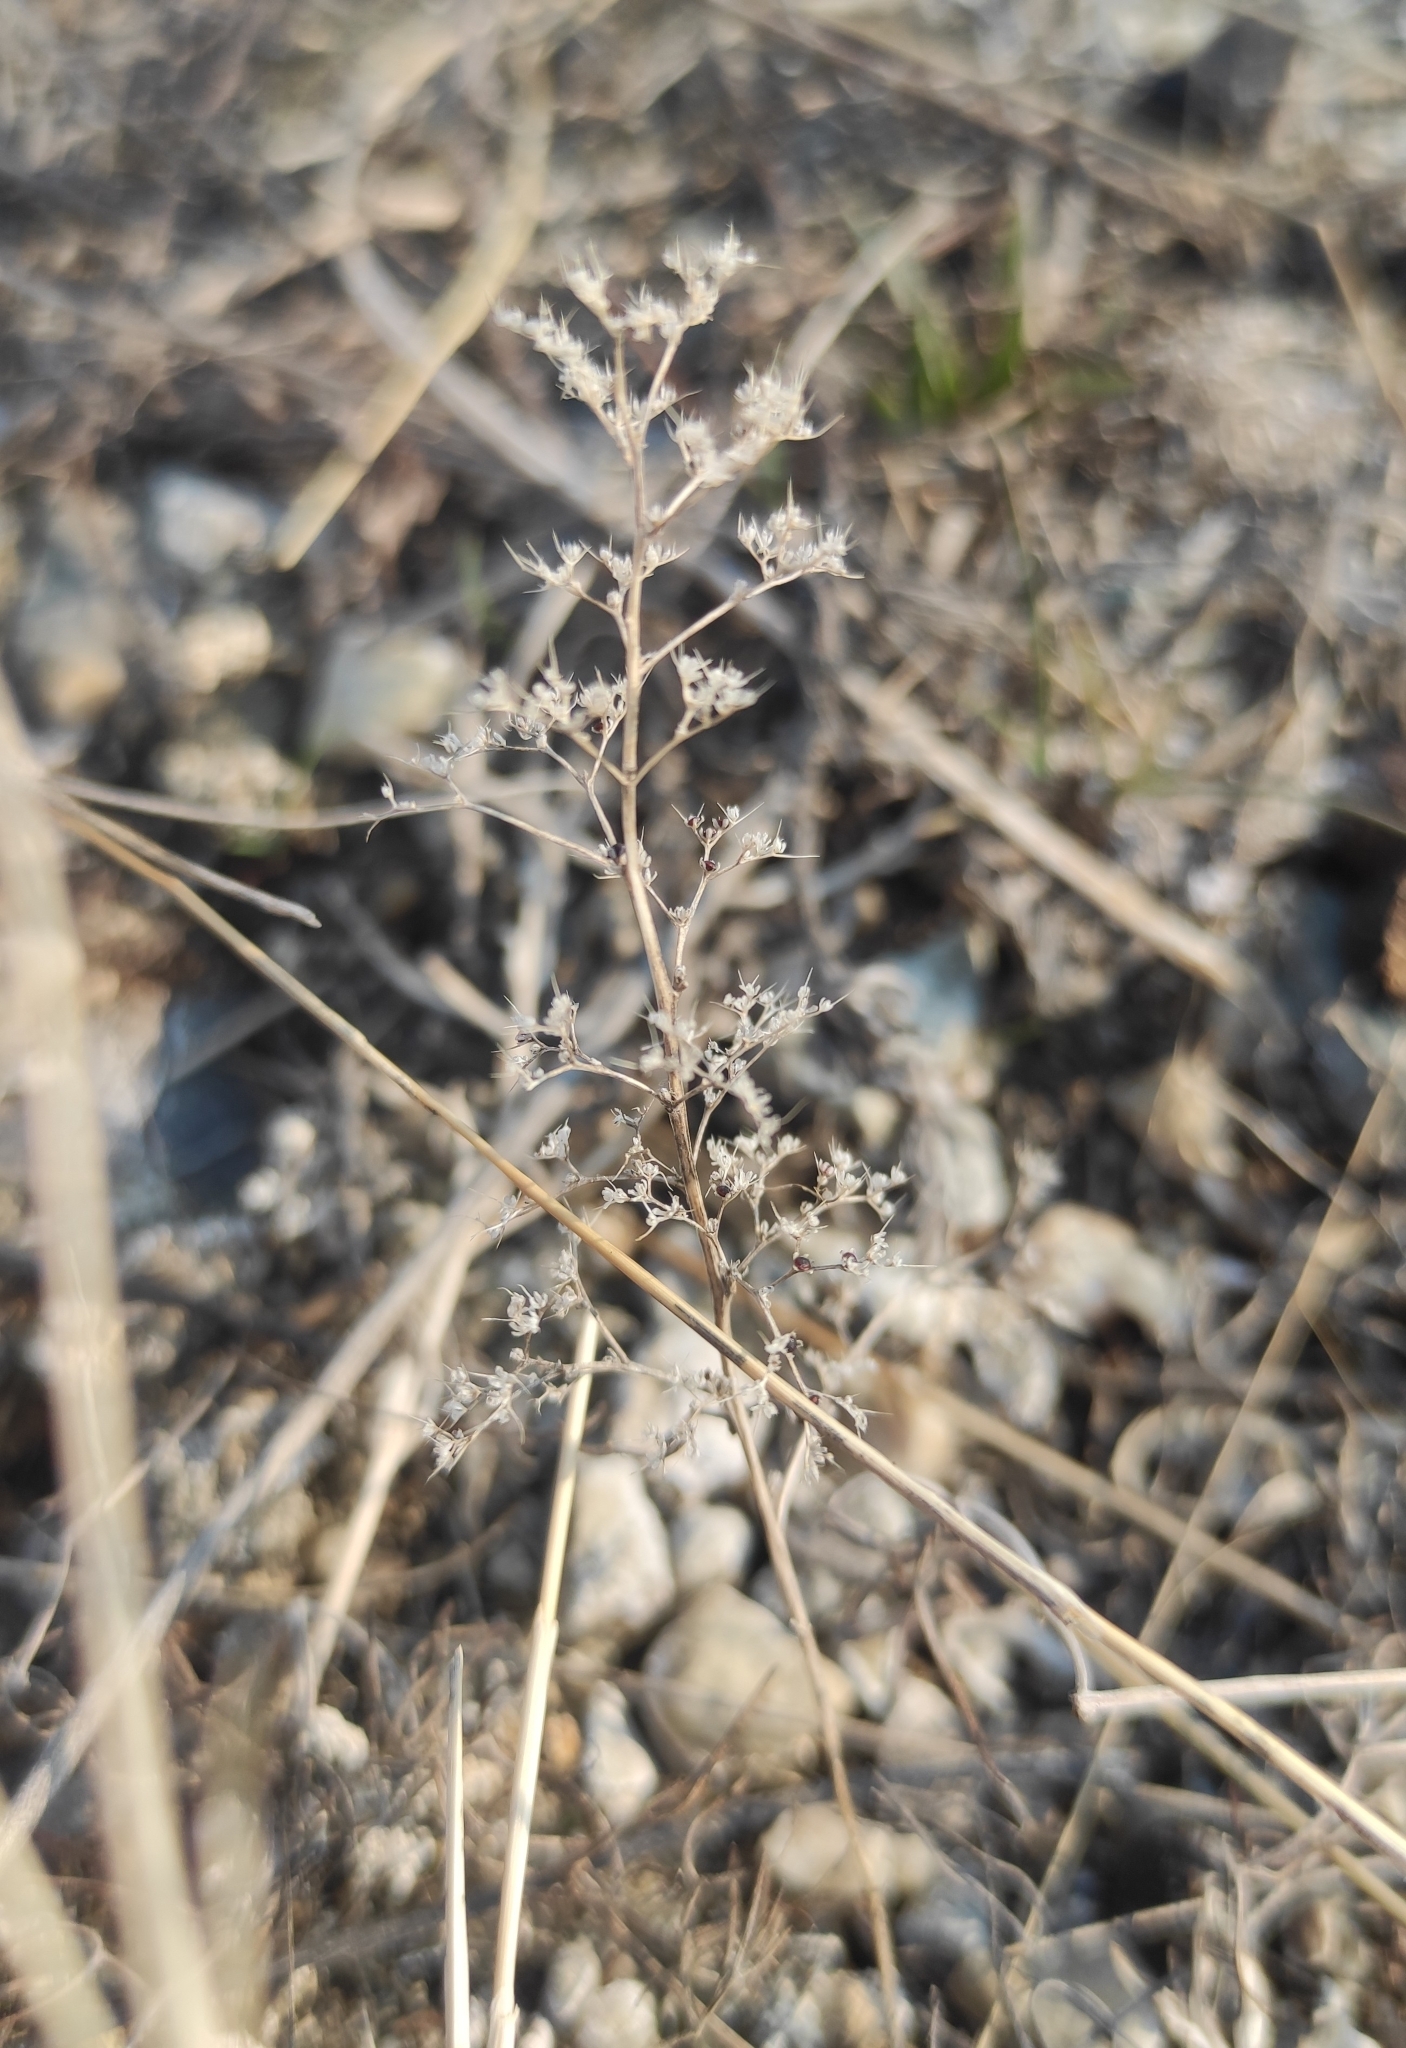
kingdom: Plantae
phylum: Tracheophyta
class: Magnoliopsida
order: Caryophyllales
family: Amaranthaceae
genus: Teloxys
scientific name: Teloxys aristata
